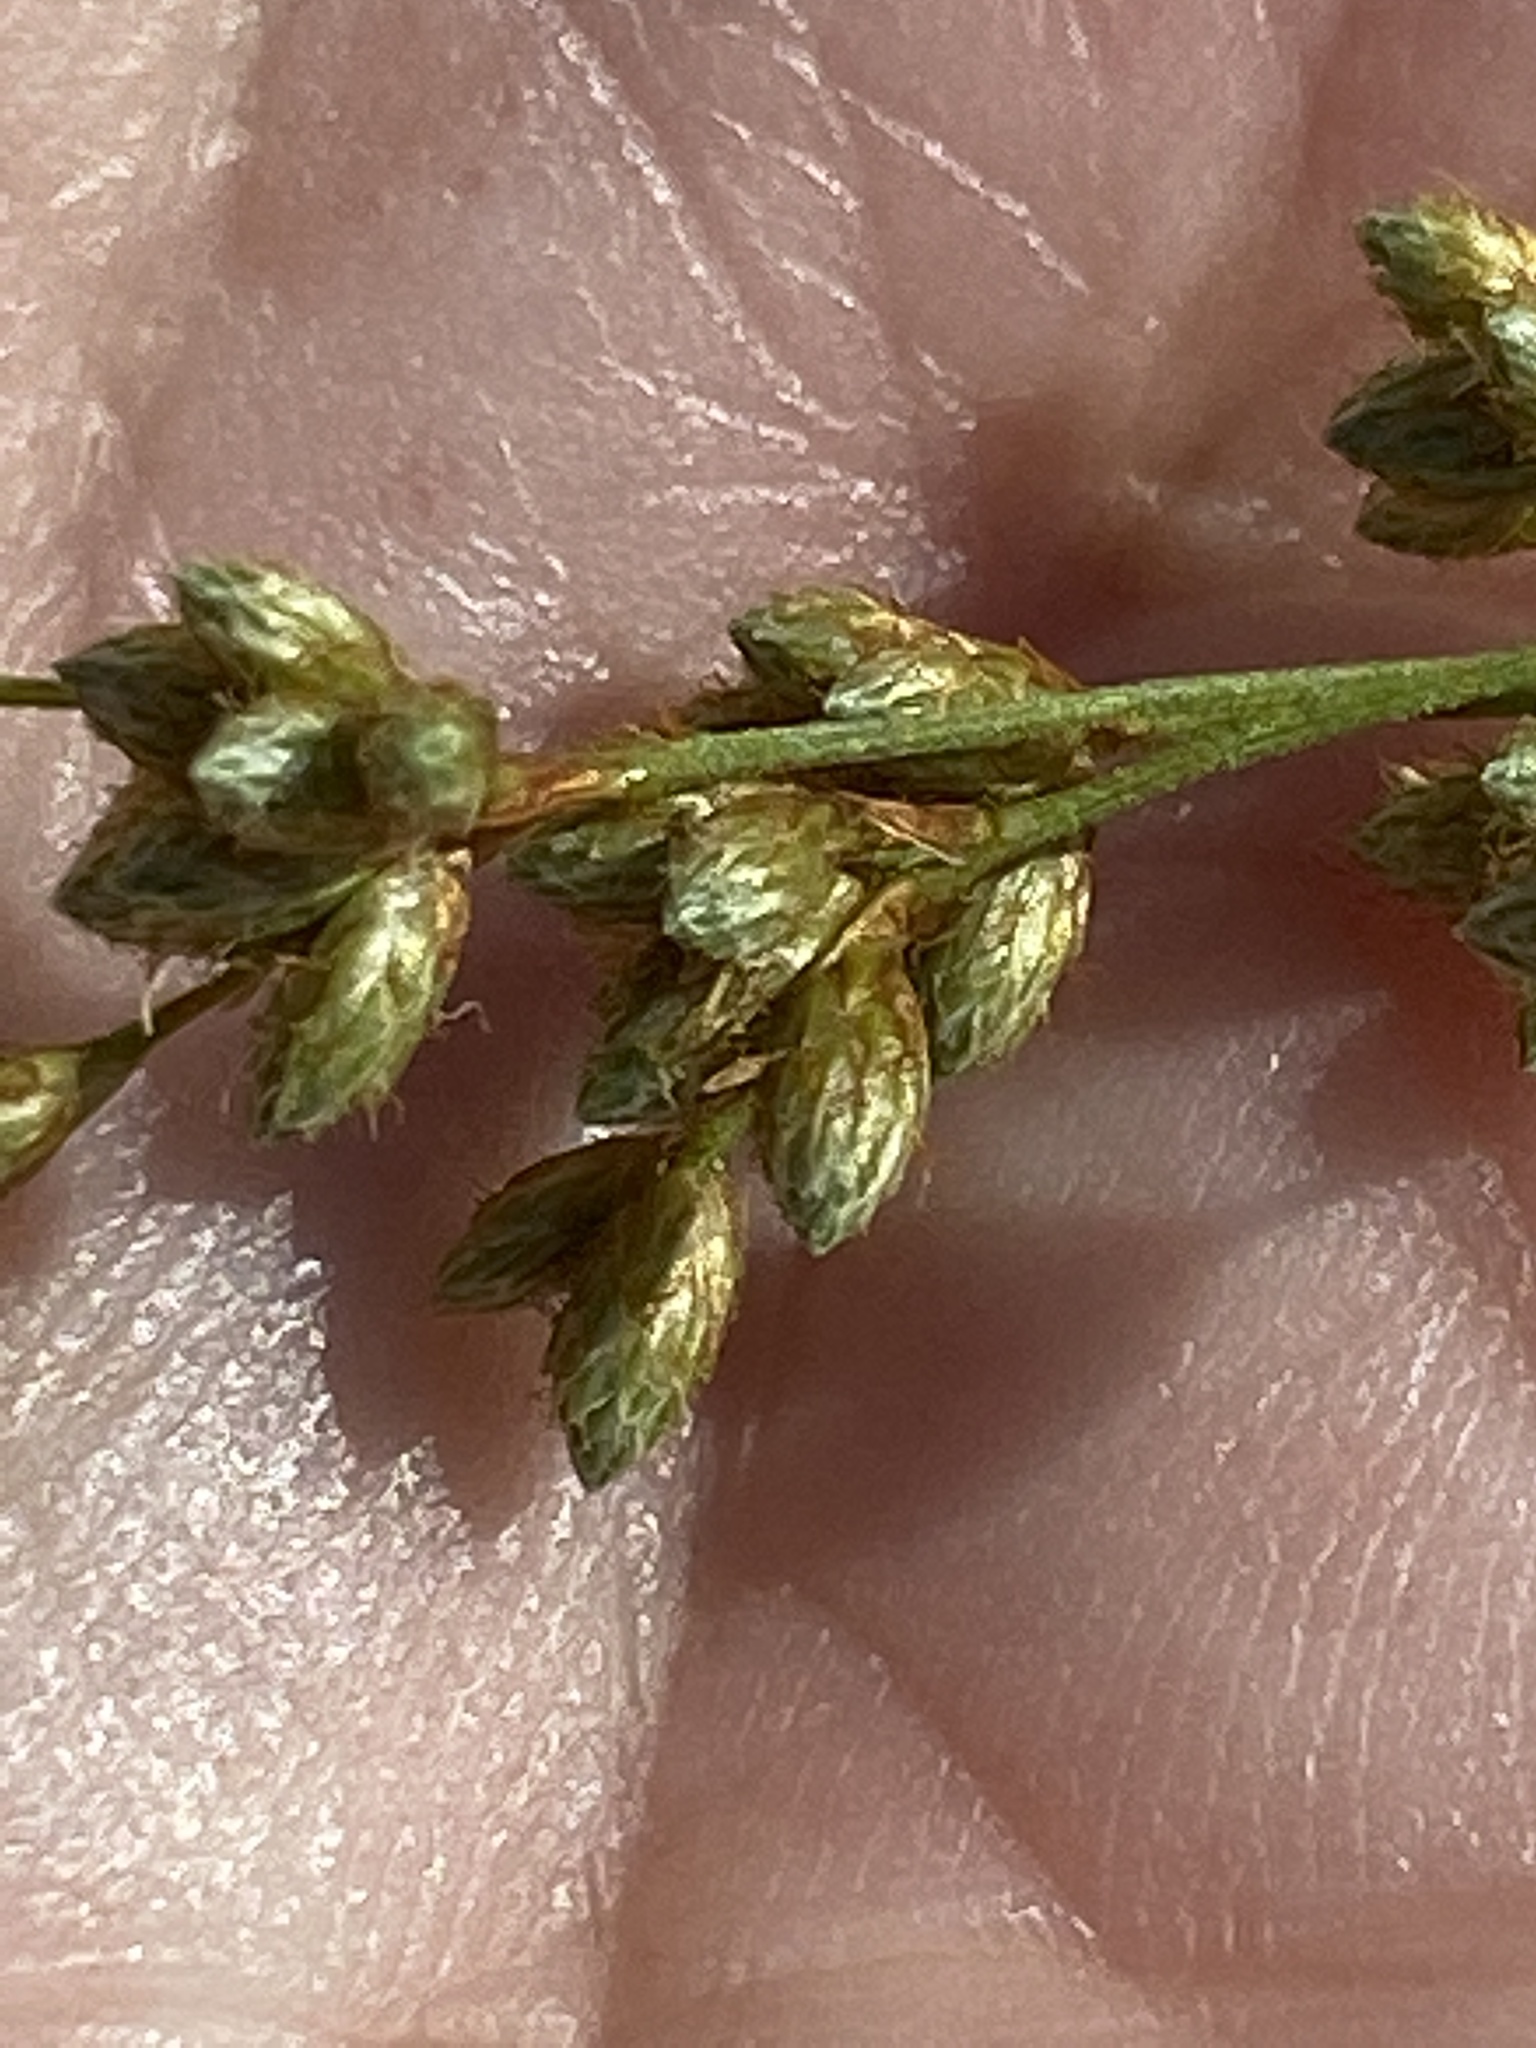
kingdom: Plantae
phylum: Tracheophyta
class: Liliopsida
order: Poales
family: Cyperaceae
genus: Scirpus
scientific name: Scirpus cyperinus
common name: Black-sheathed bulrush
